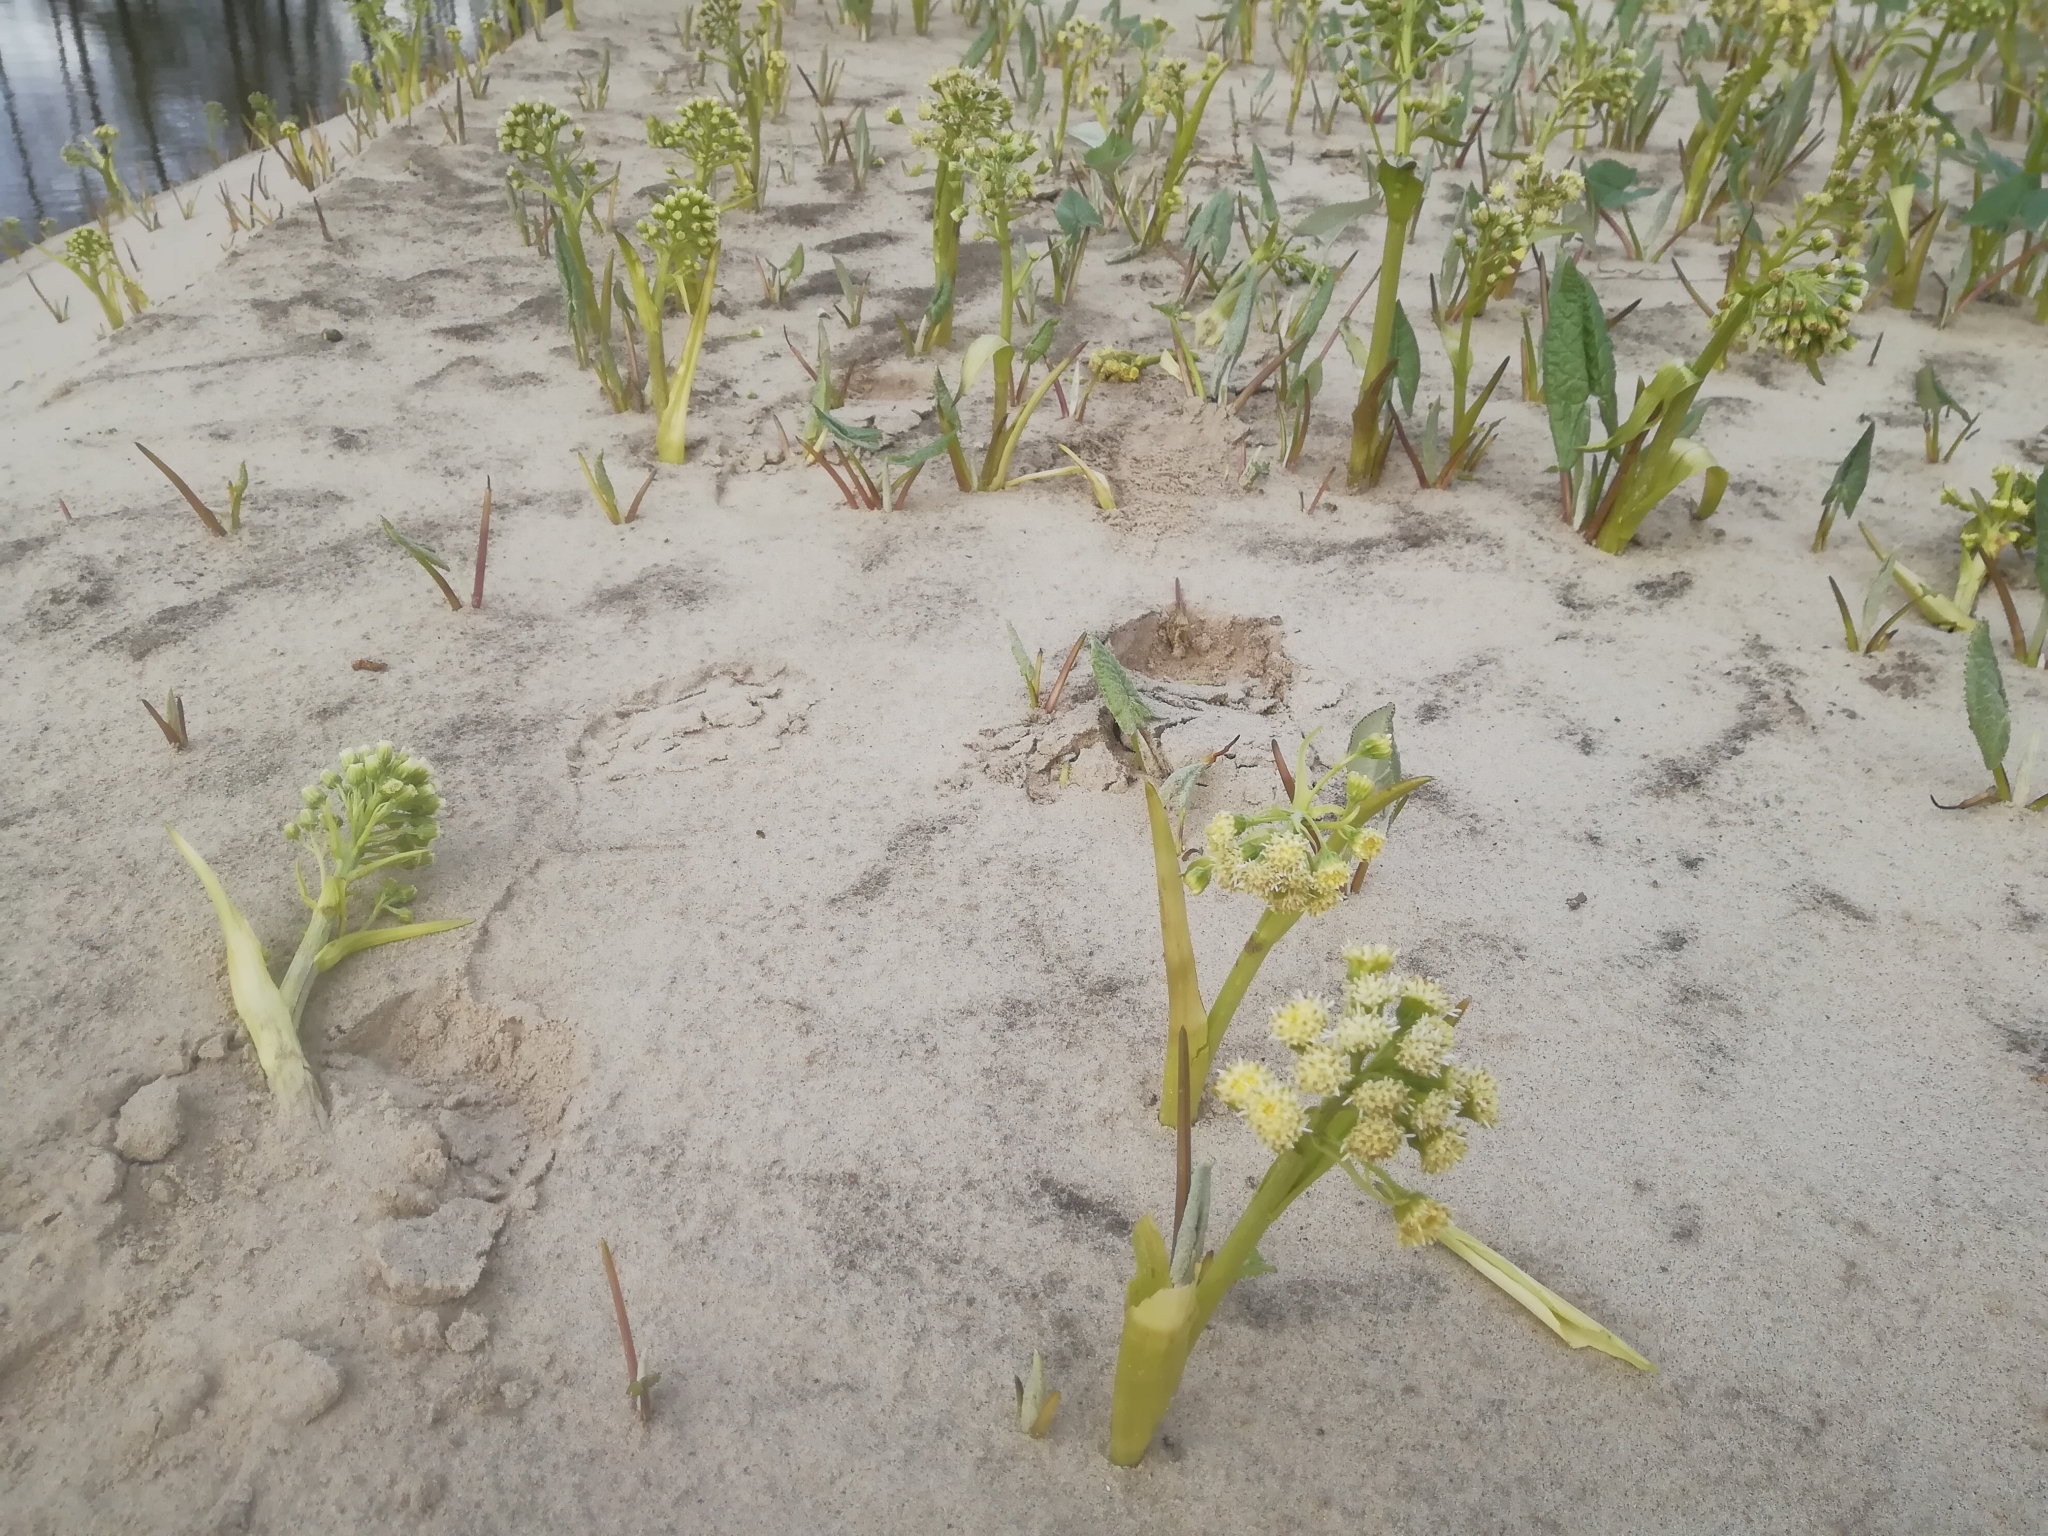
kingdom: Plantae
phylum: Tracheophyta
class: Magnoliopsida
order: Asterales
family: Asteraceae
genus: Petasites
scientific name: Petasites spurius
